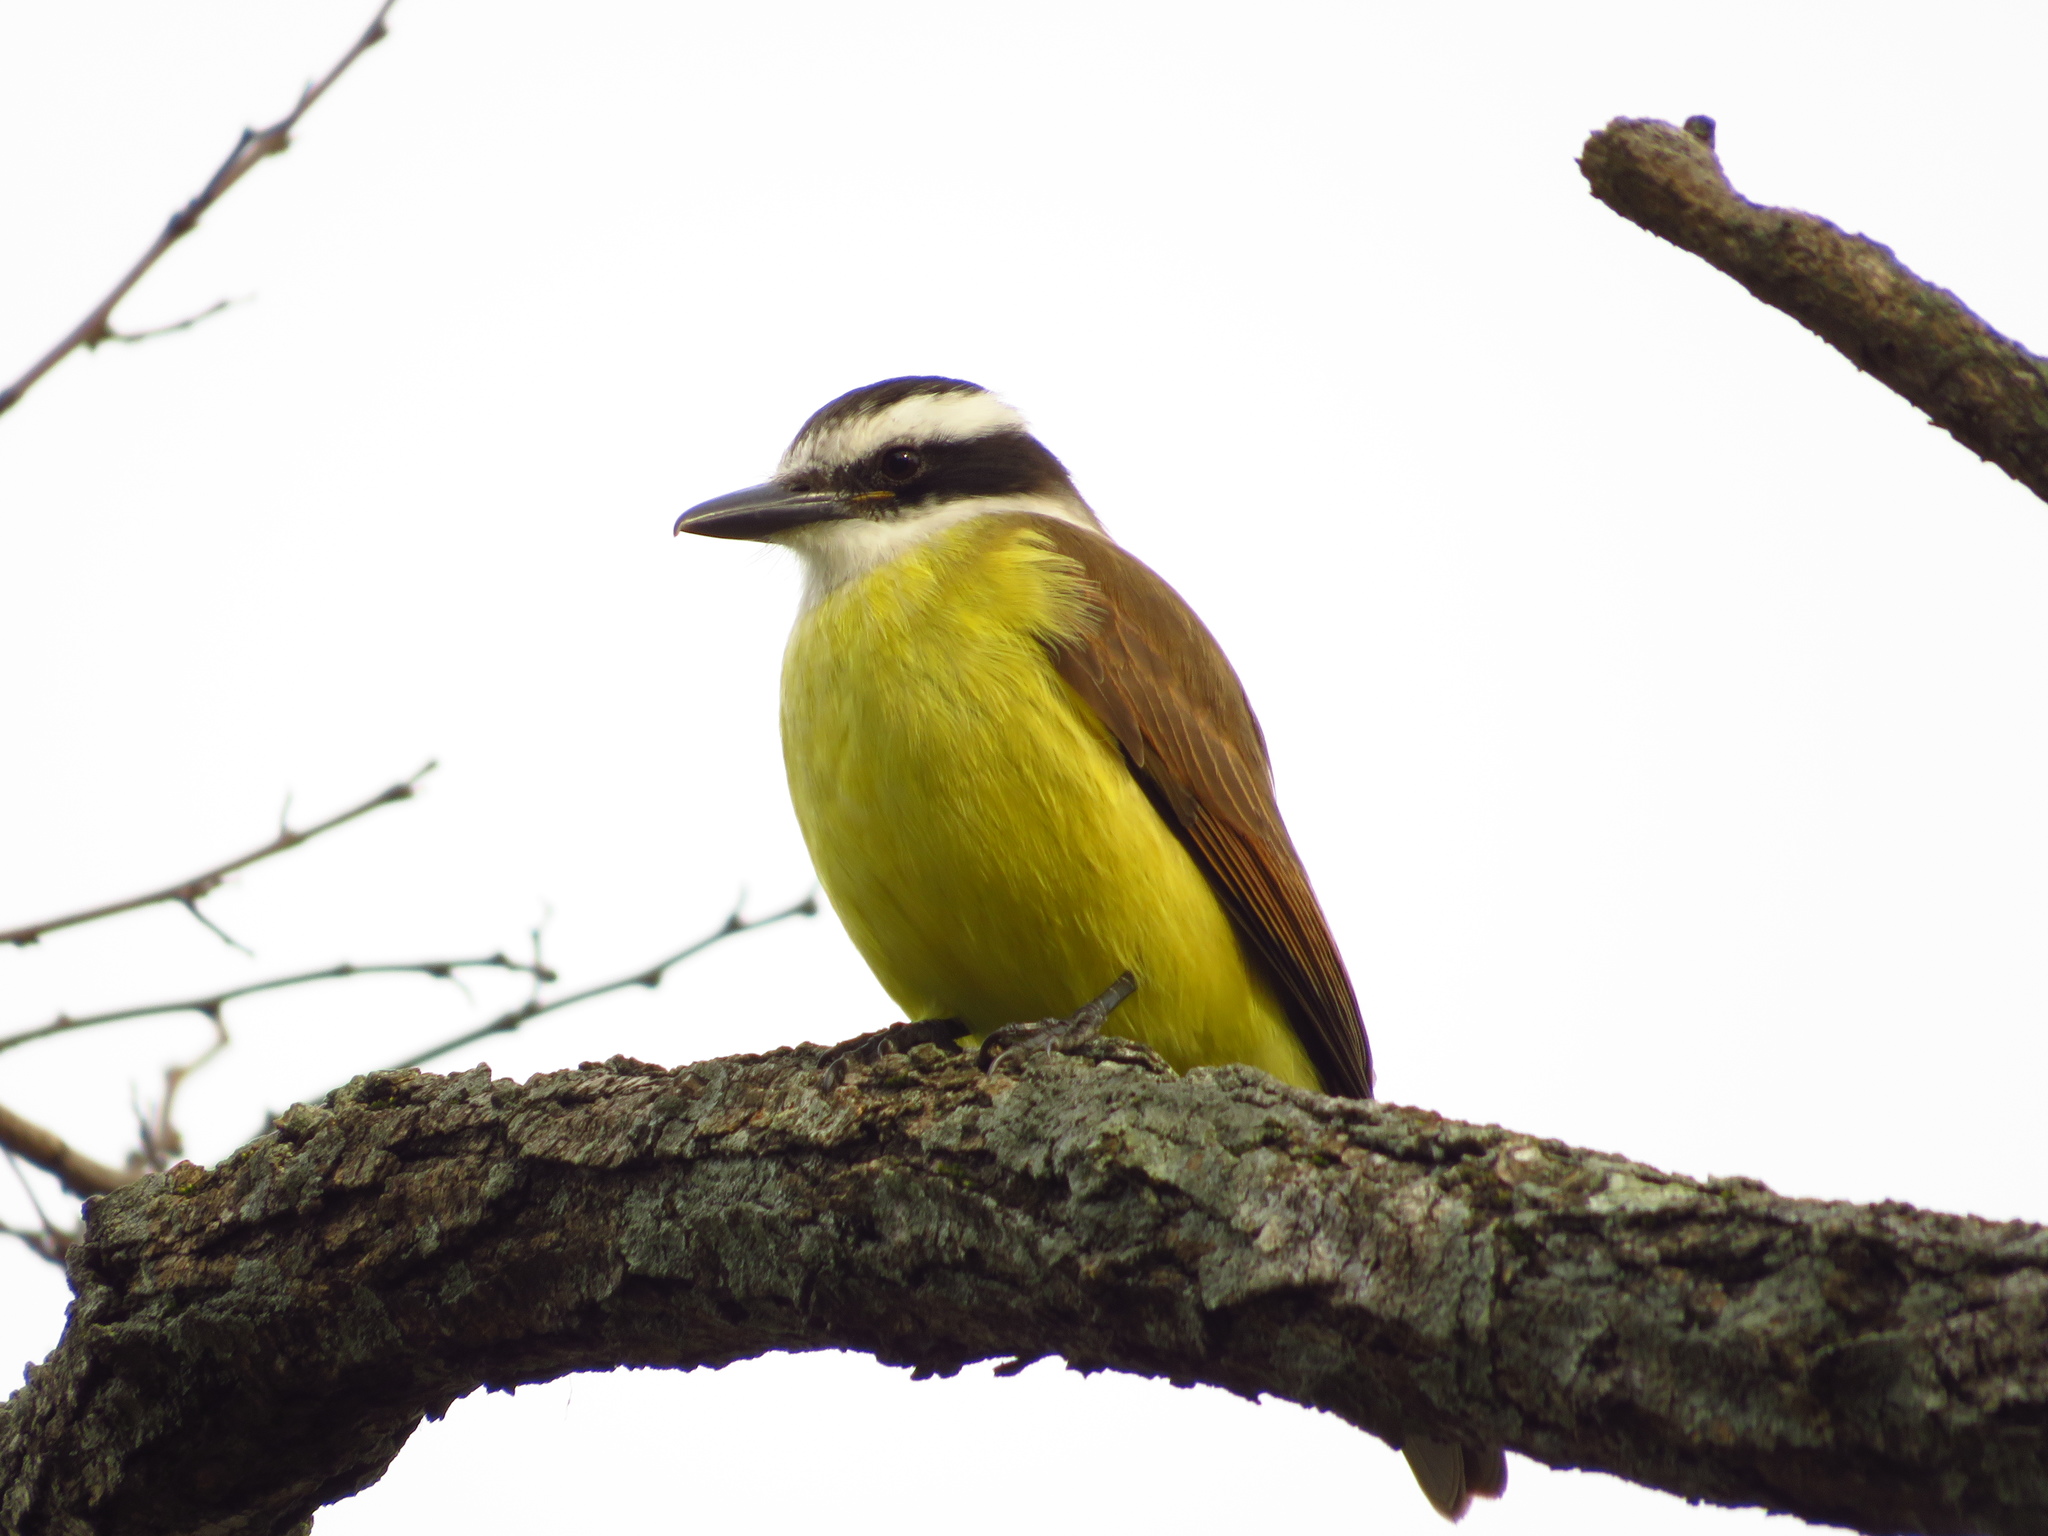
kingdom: Animalia
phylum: Chordata
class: Aves
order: Passeriformes
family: Tyrannidae
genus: Pitangus
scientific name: Pitangus sulphuratus
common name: Great kiskadee
